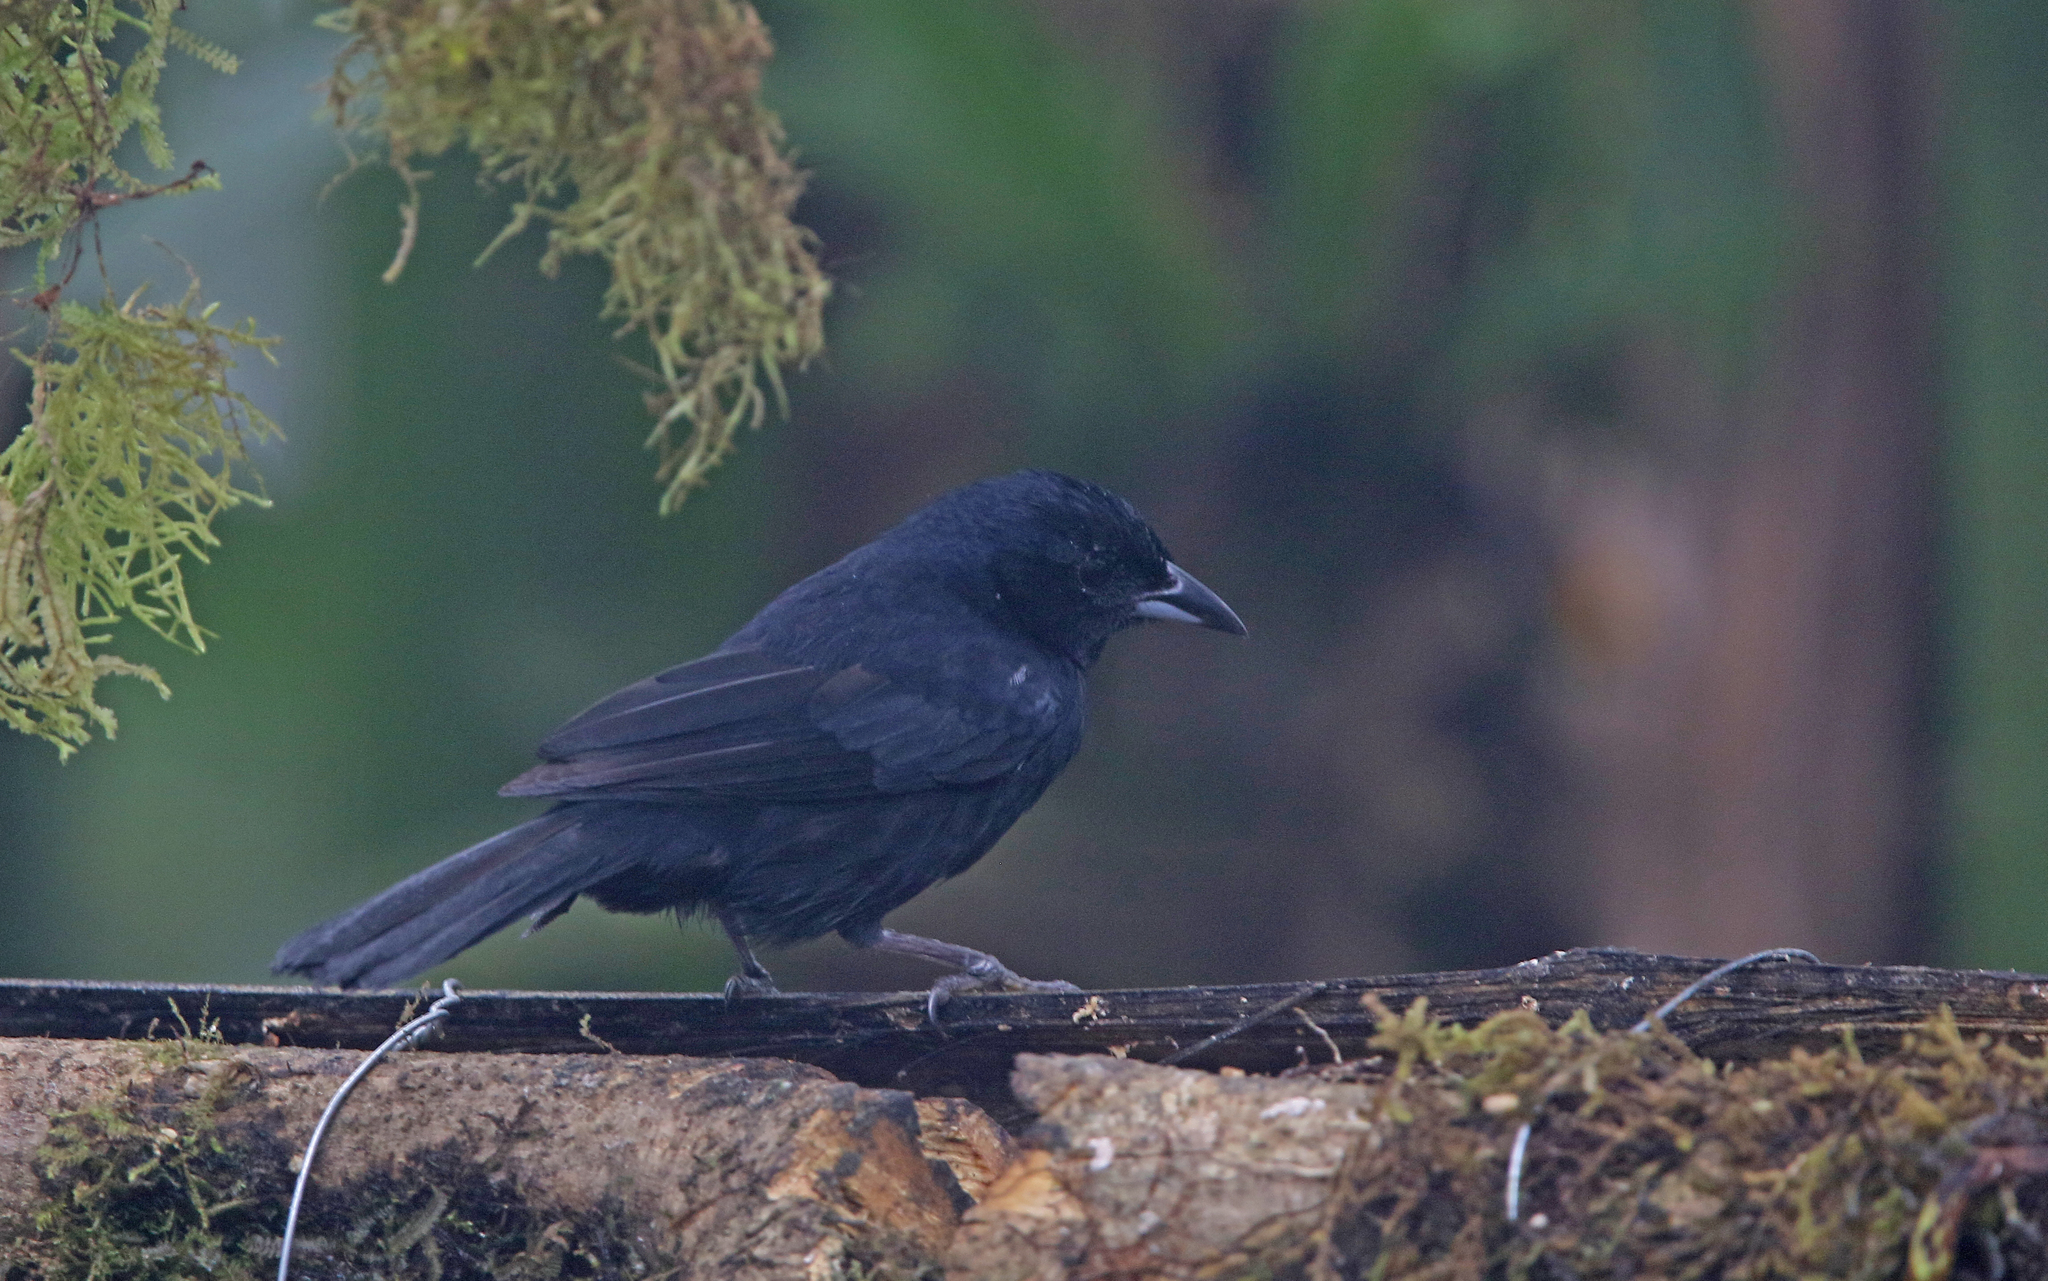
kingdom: Animalia
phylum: Chordata
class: Aves
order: Passeriformes
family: Thraupidae
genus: Tachyphonus
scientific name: Tachyphonus rufus
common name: White-lined tanager
